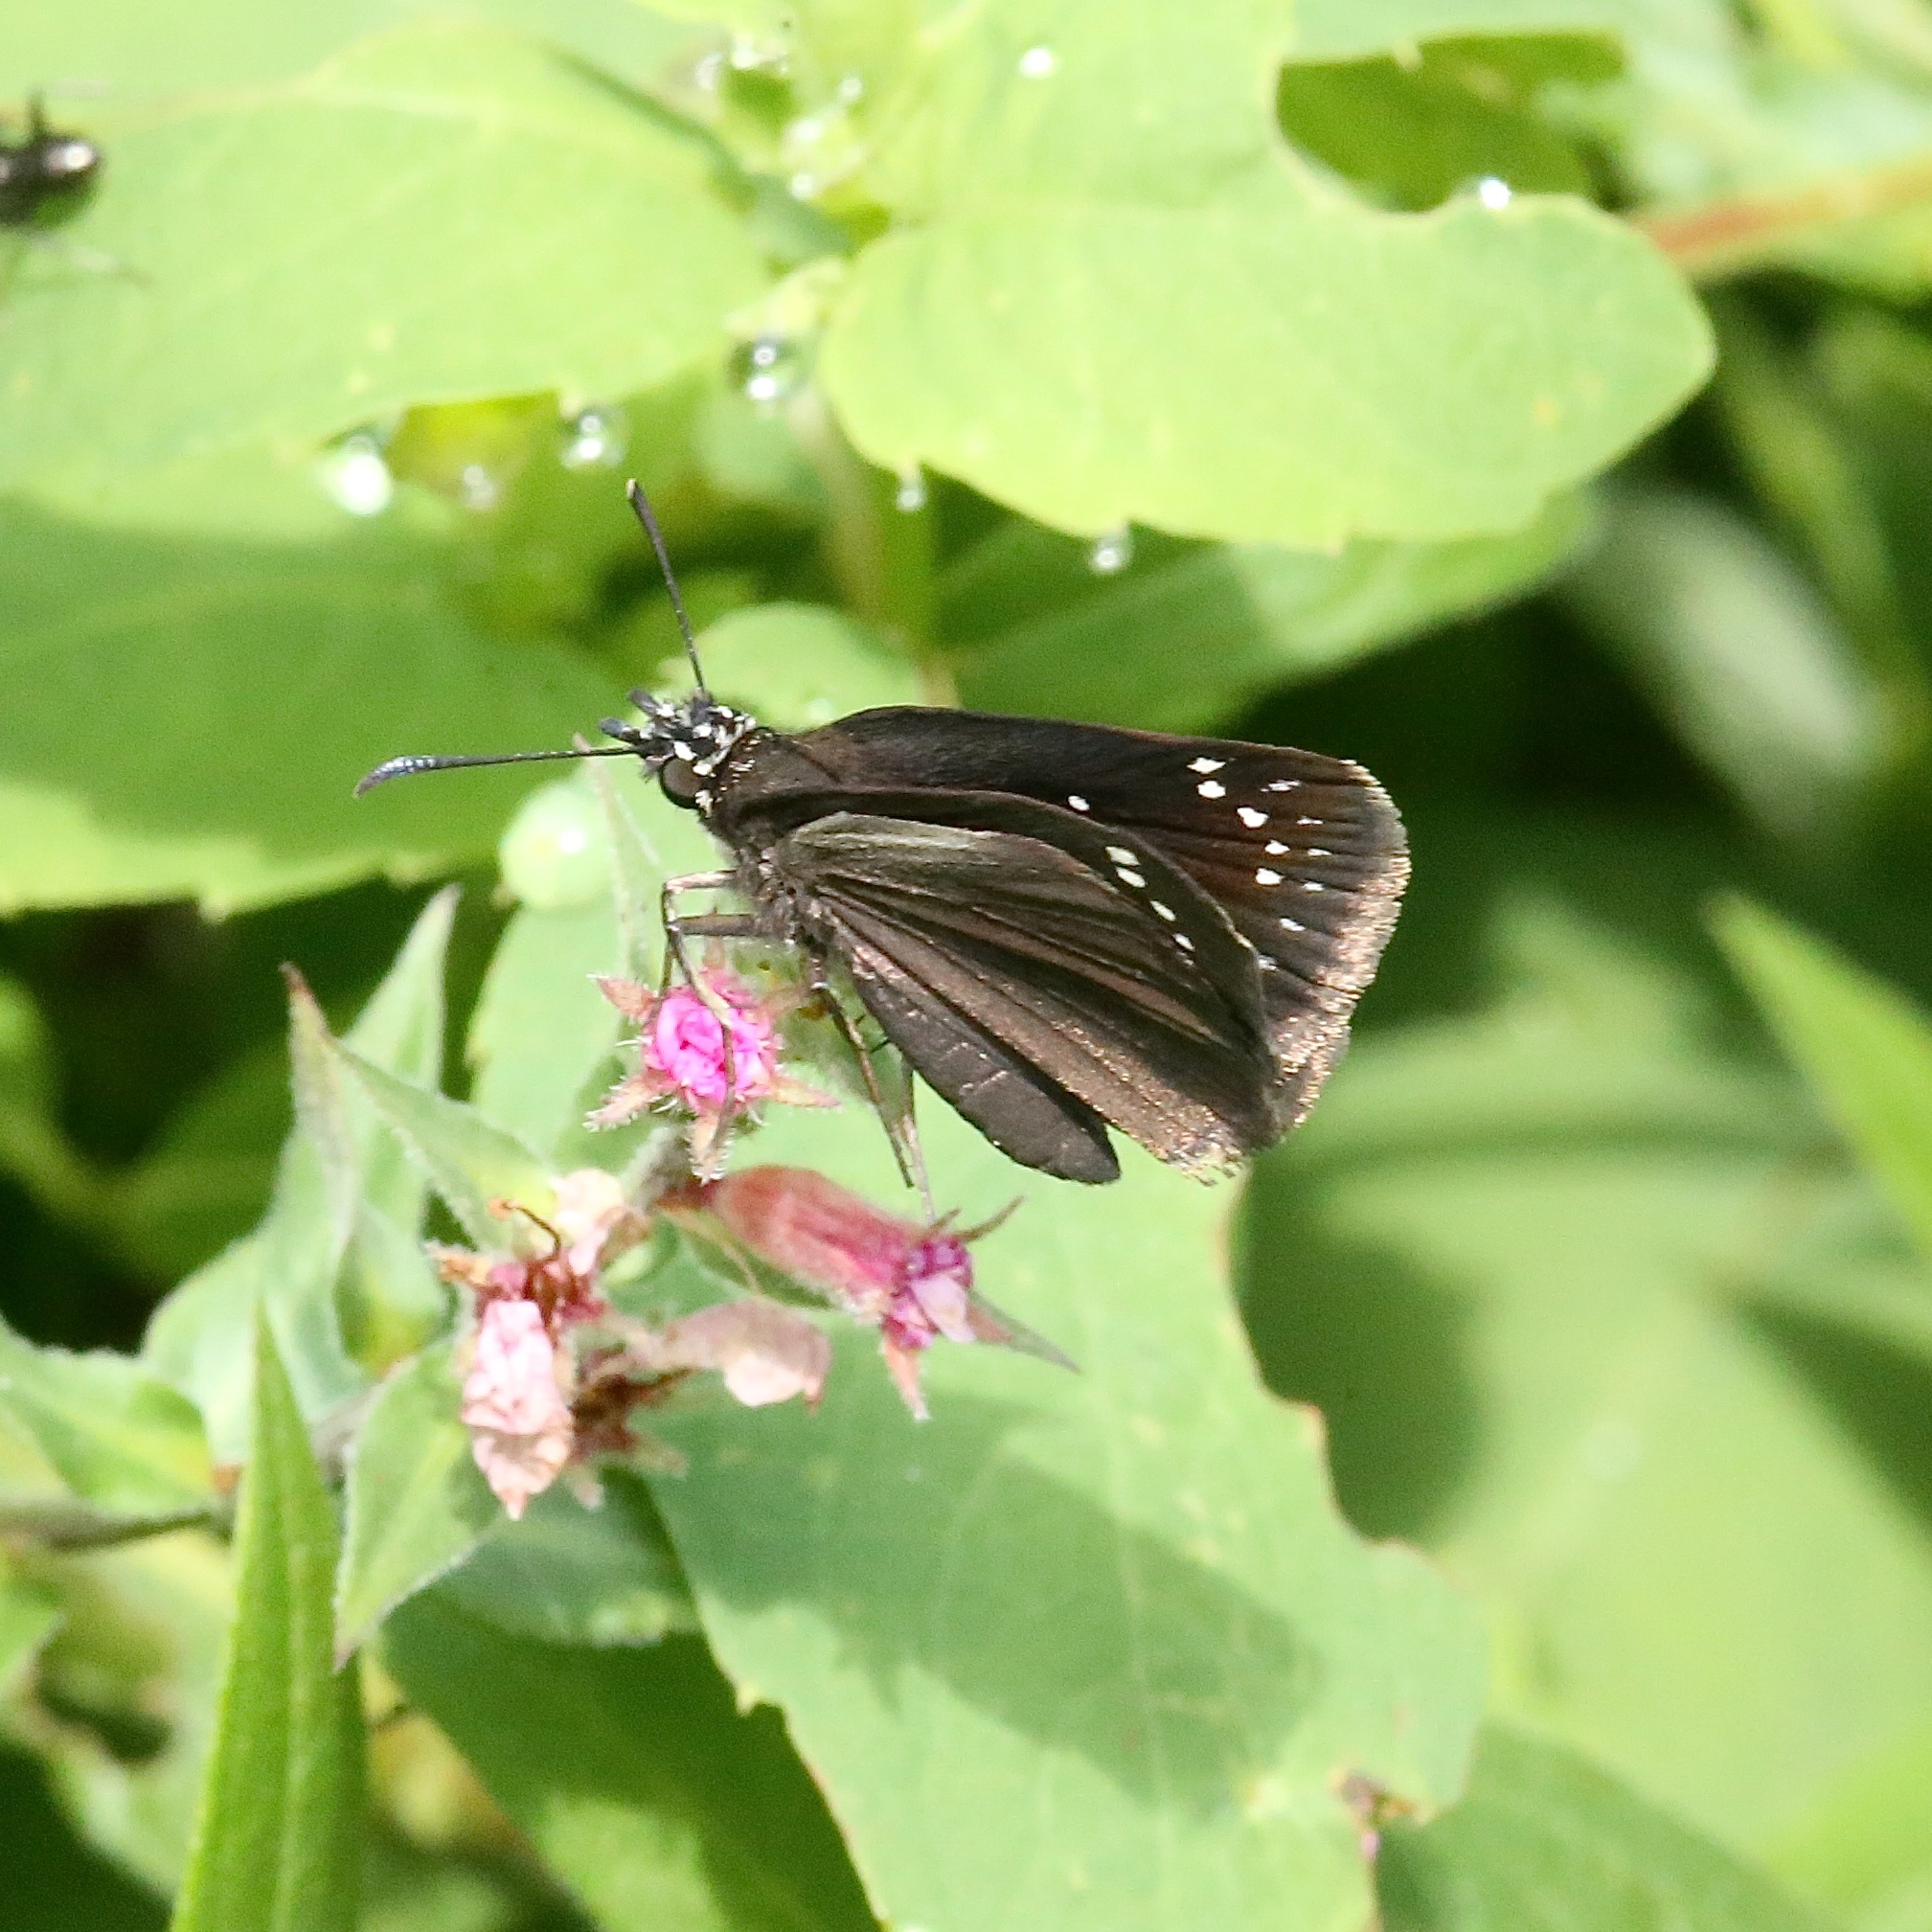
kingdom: Animalia
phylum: Arthropoda
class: Insecta
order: Lepidoptera
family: Hesperiidae
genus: Pholisora
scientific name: Pholisora catullus
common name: Common sootywing
